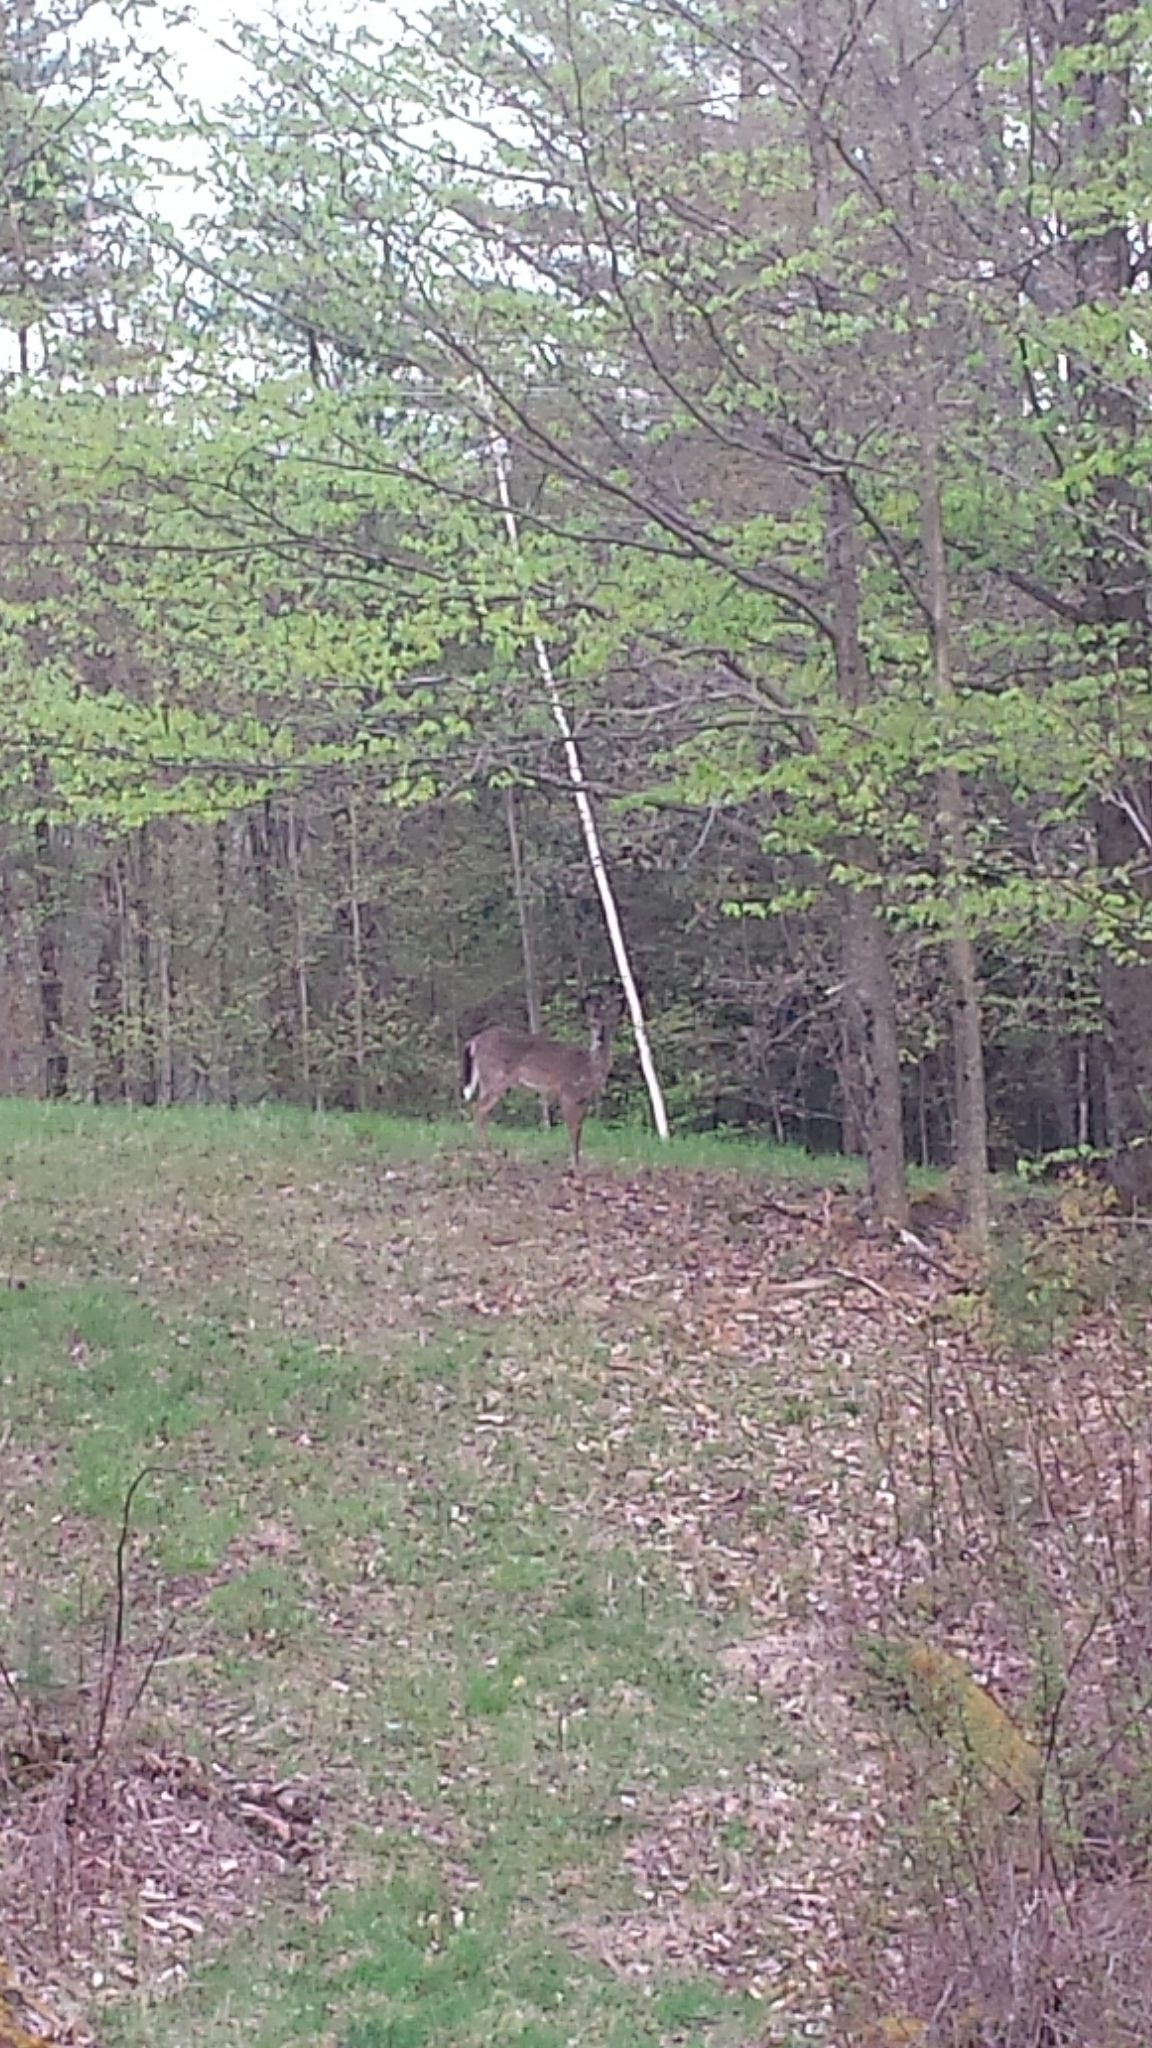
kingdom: Animalia
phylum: Chordata
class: Mammalia
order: Artiodactyla
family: Cervidae
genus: Odocoileus
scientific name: Odocoileus virginianus
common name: White-tailed deer
